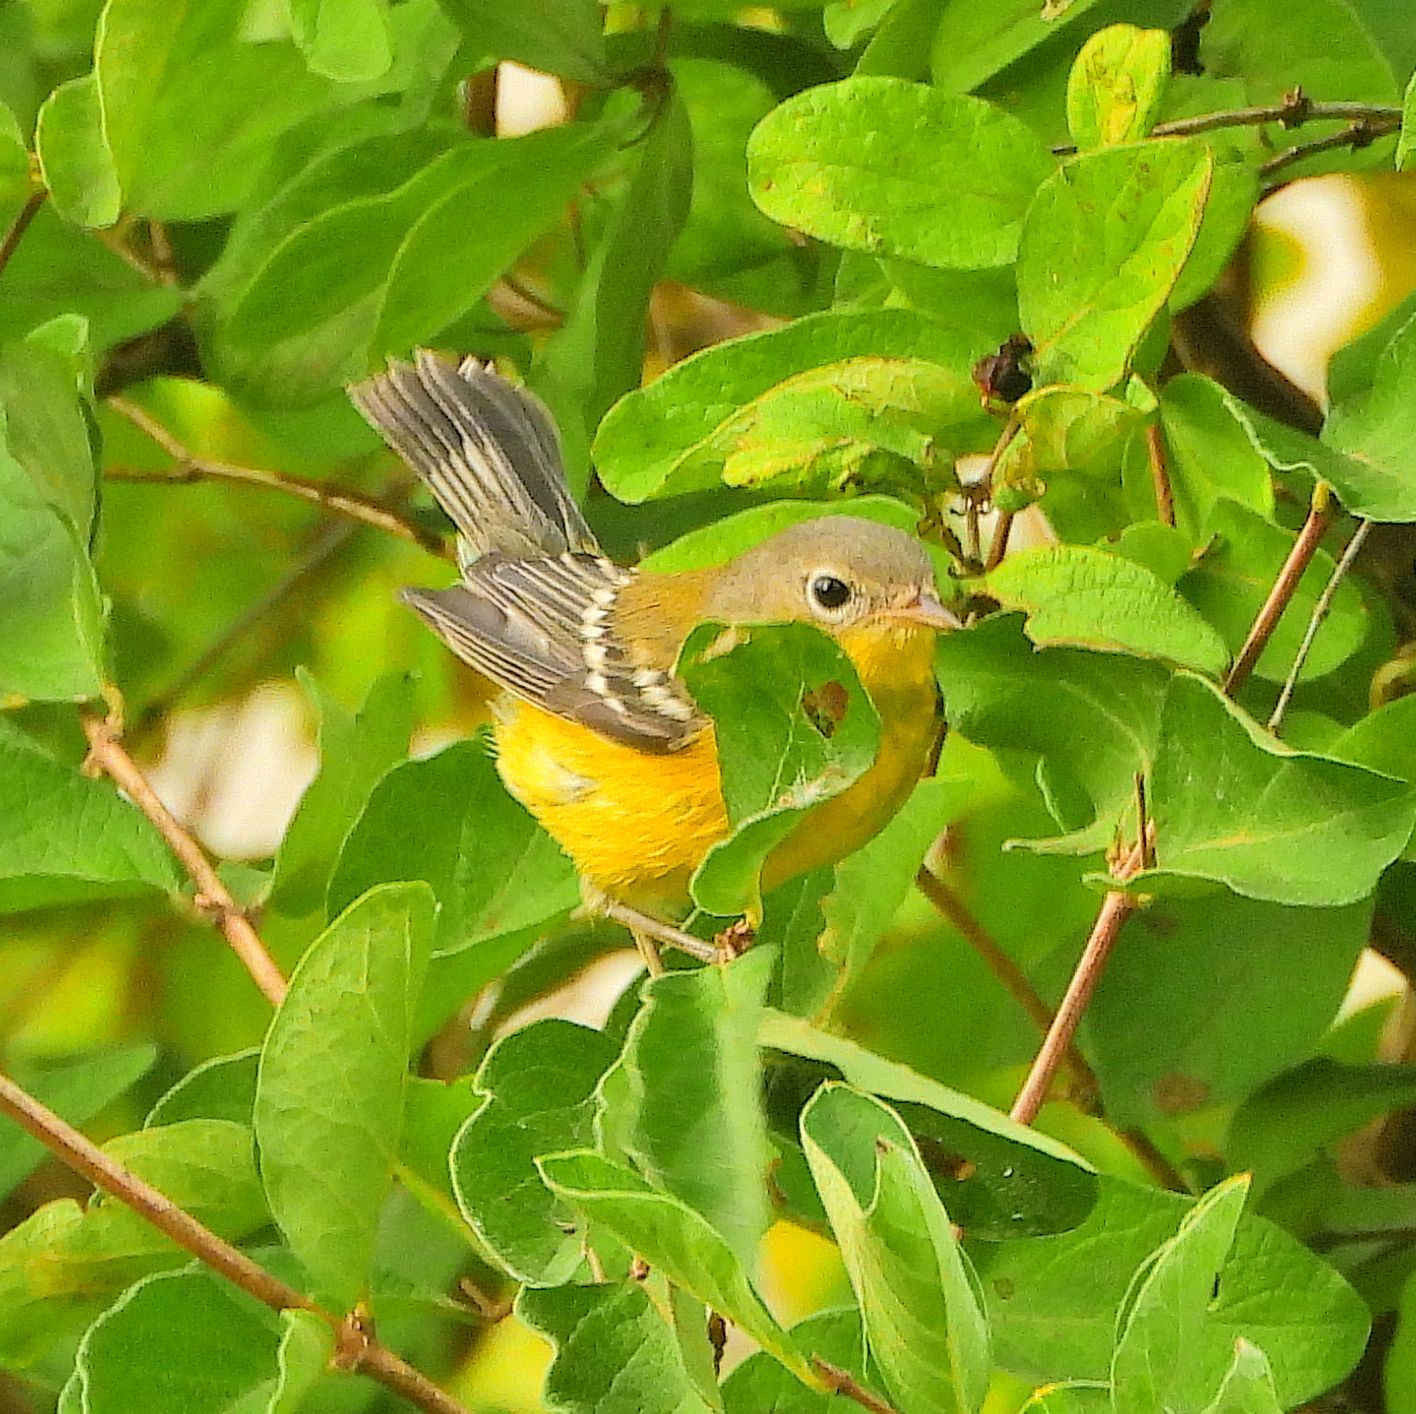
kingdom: Animalia
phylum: Chordata
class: Aves
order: Passeriformes
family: Parulidae
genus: Setophaga
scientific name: Setophaga magnolia
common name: Magnolia warbler
